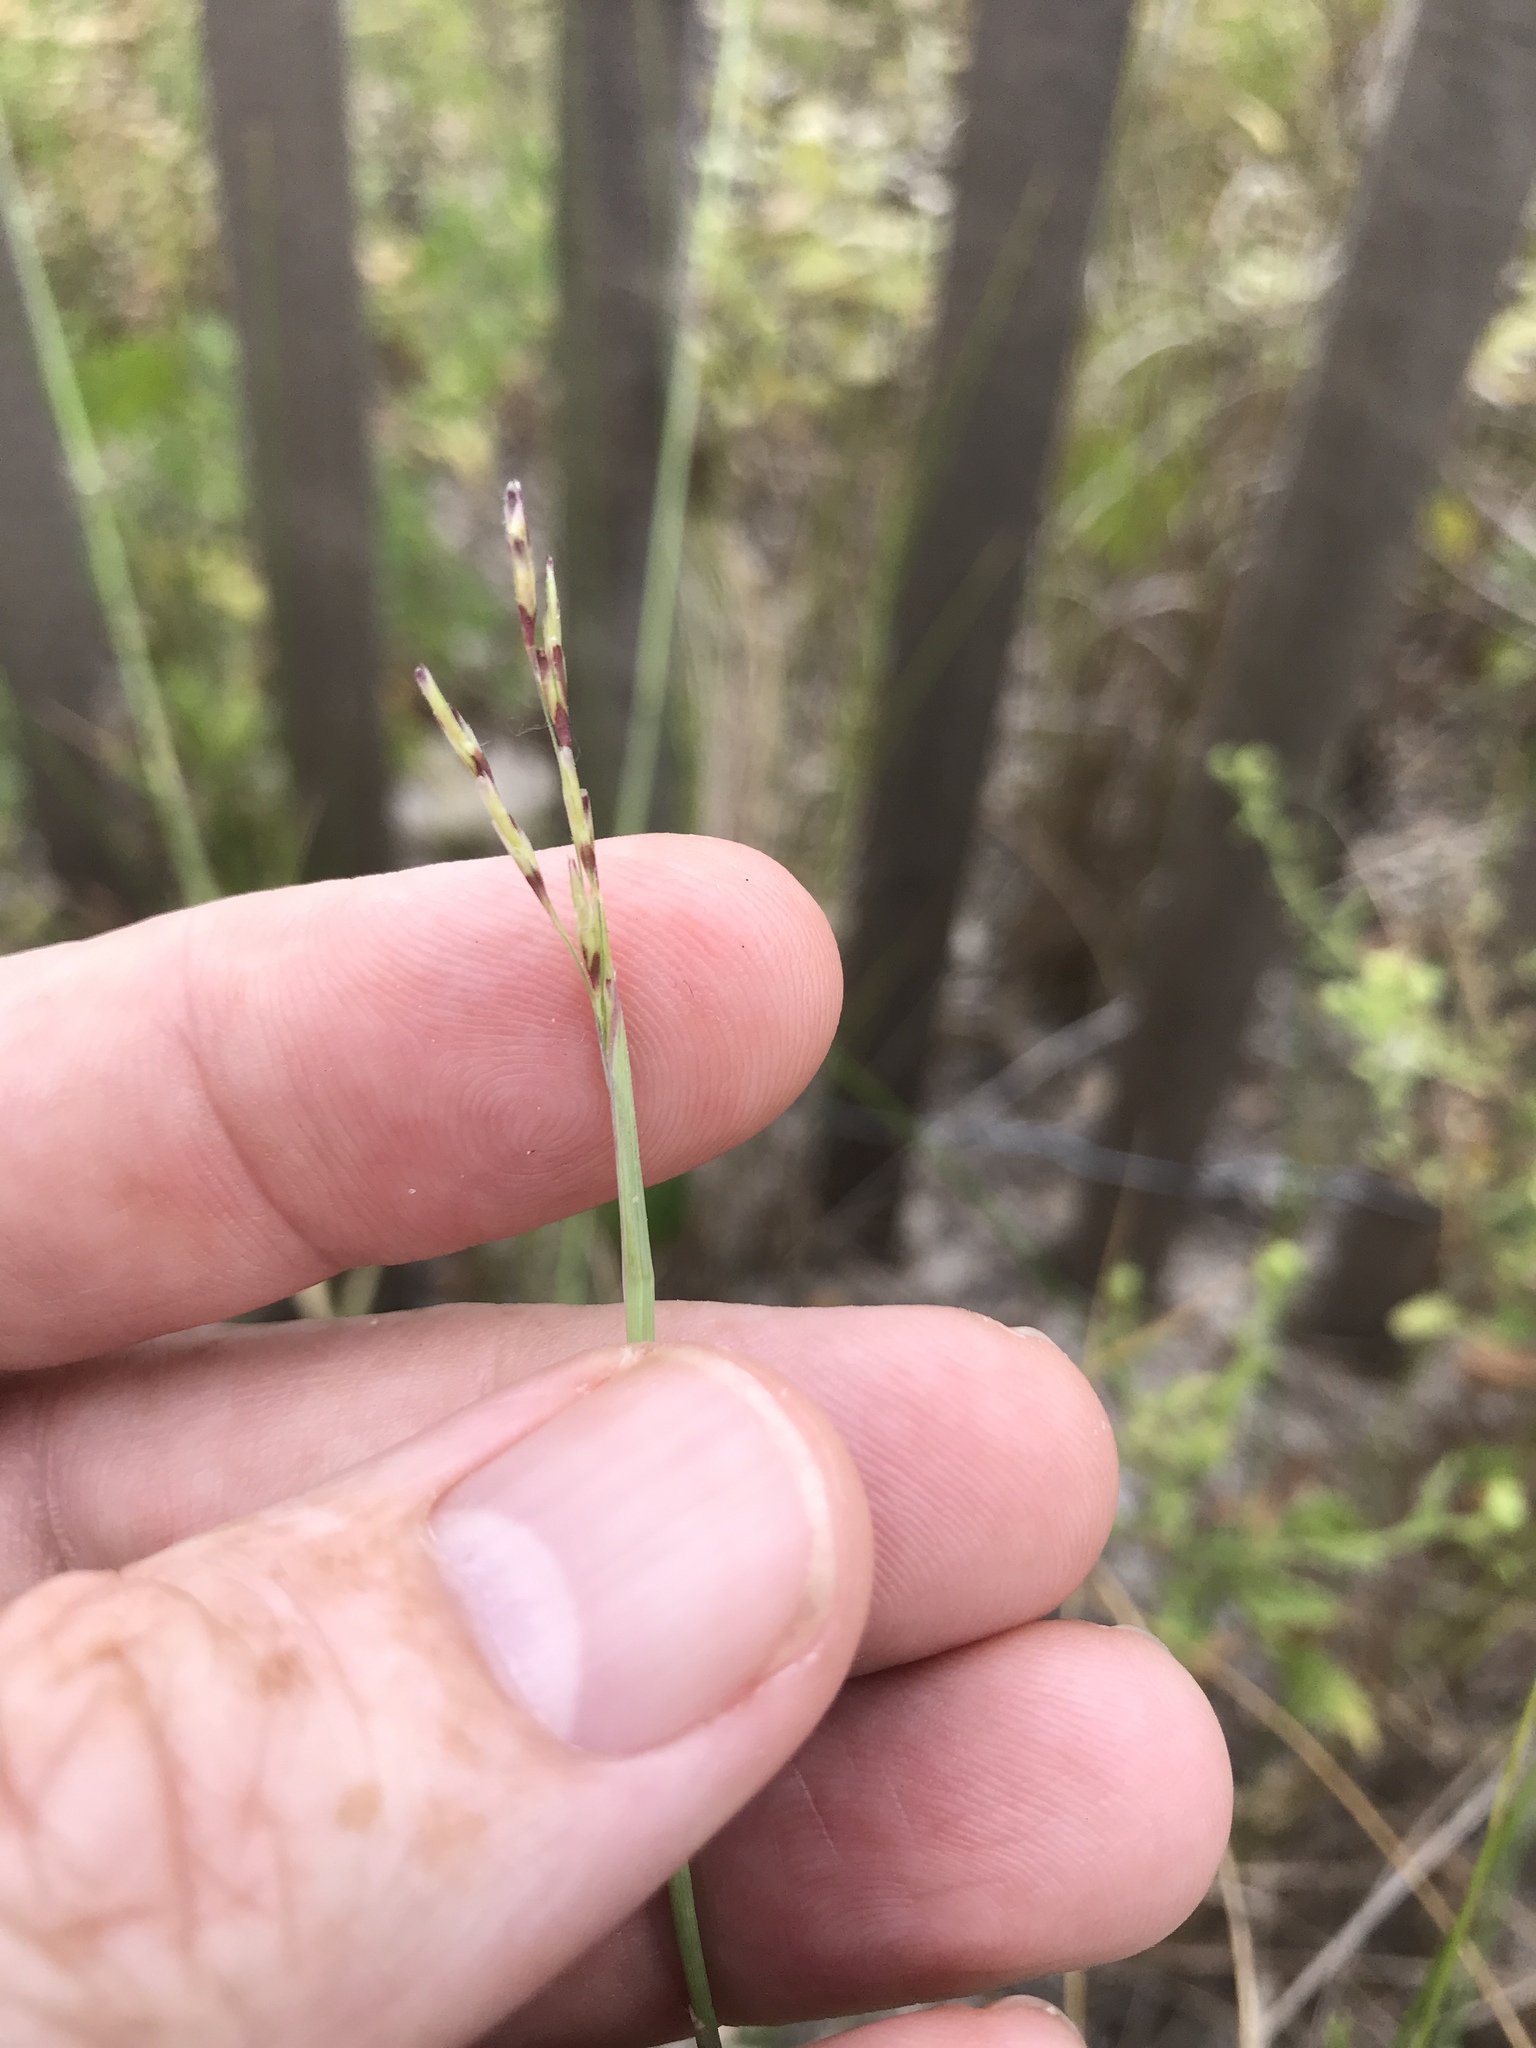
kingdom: Plantae
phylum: Tracheophyta
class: Liliopsida
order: Poales
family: Poaceae
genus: Triplasis
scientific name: Triplasis purpurea
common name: Purple sand grass
